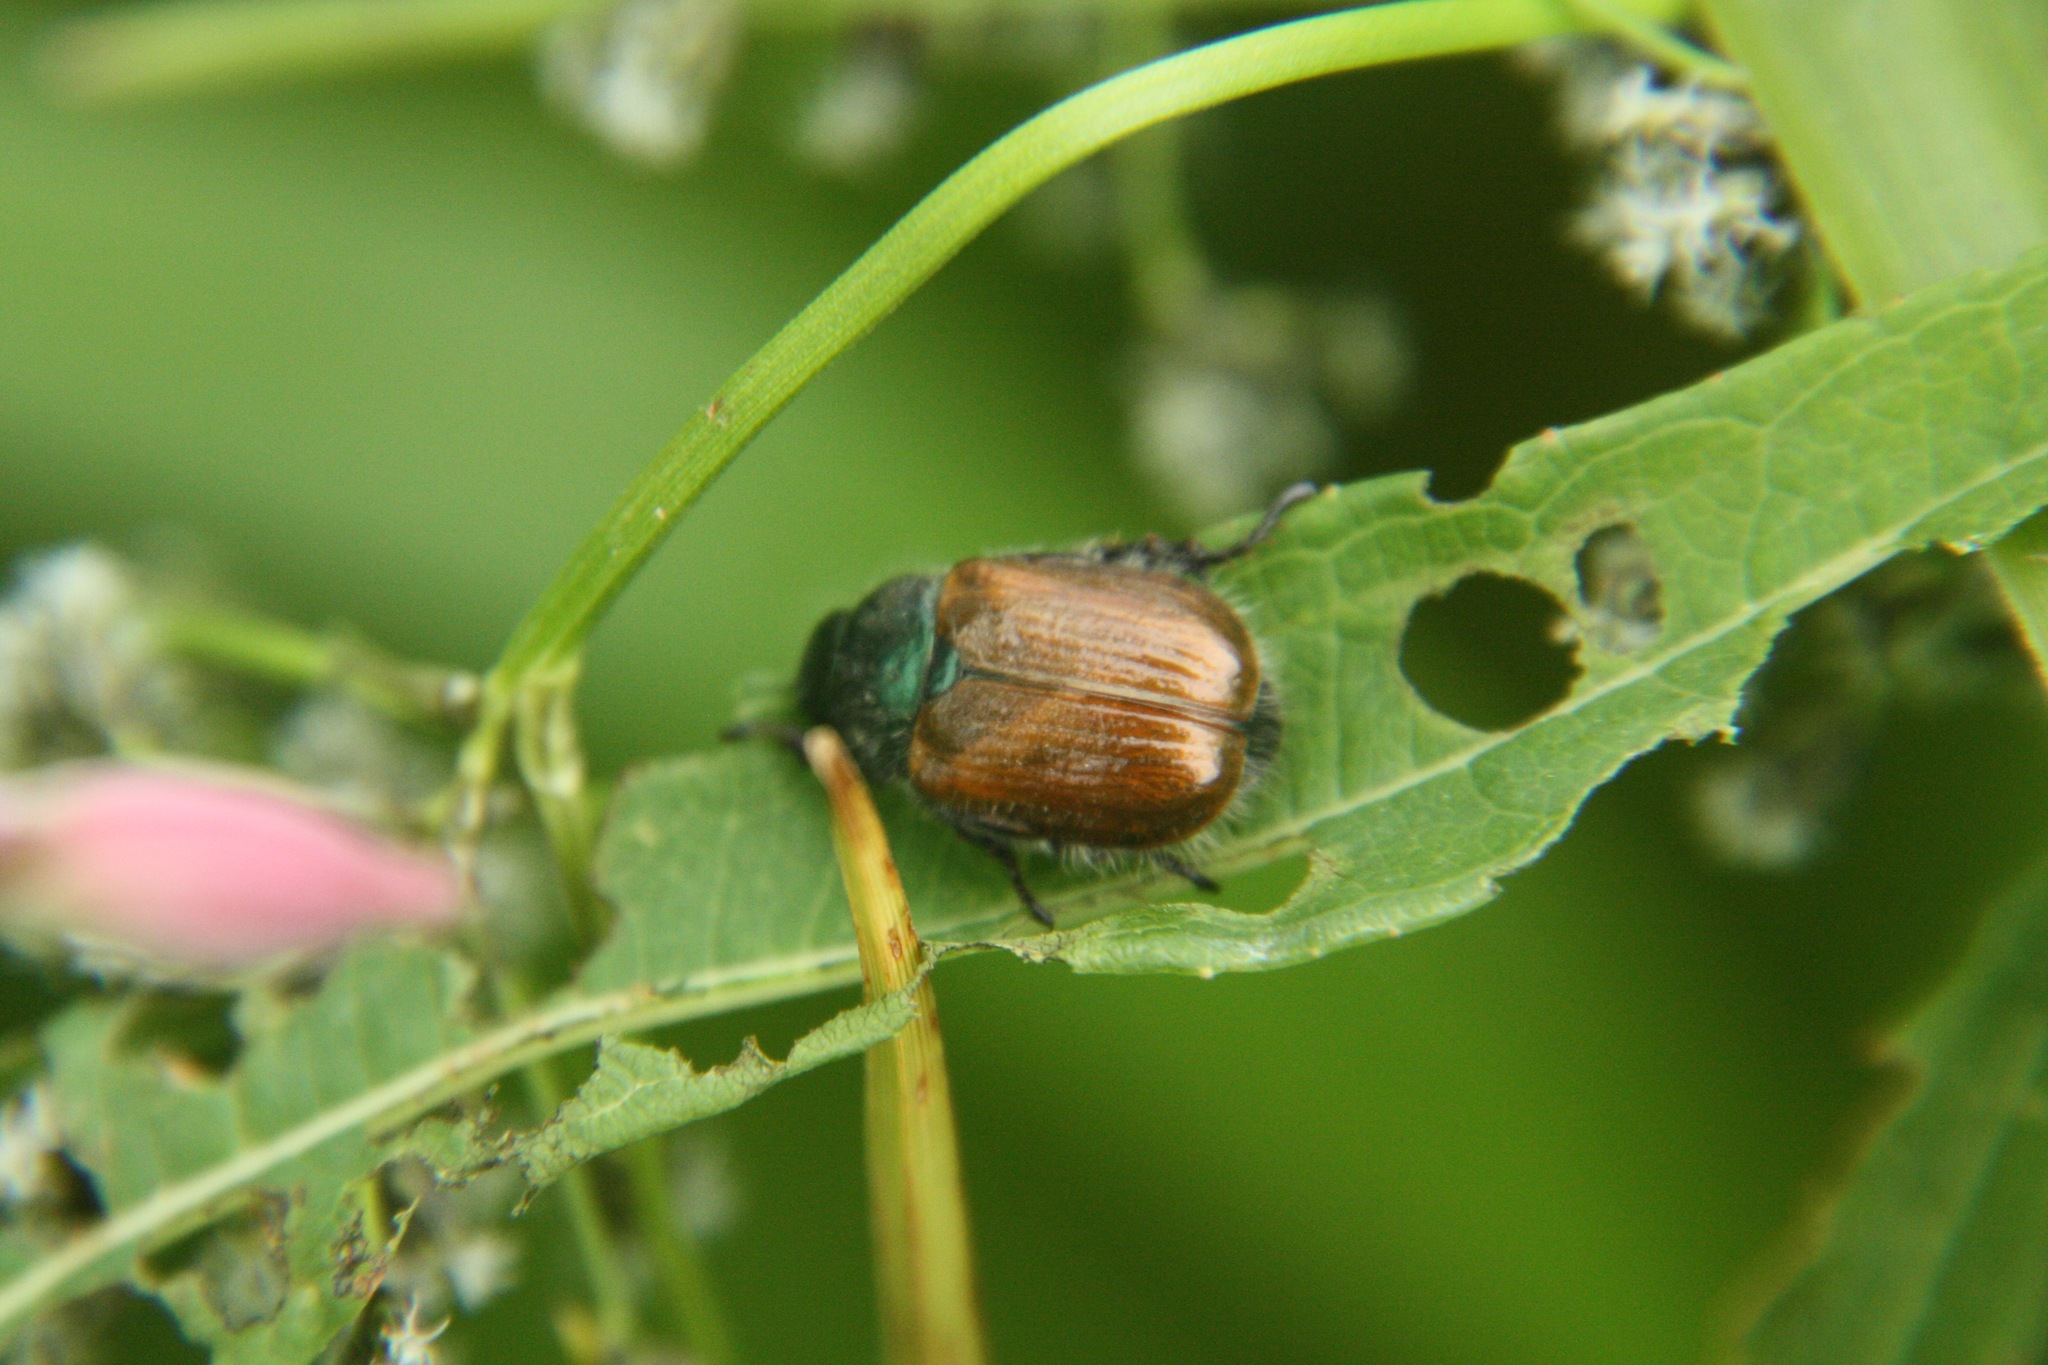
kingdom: Animalia
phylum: Arthropoda
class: Insecta
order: Coleoptera
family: Scarabaeidae
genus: Phyllopertha
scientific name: Phyllopertha horticola
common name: Garden chafer
